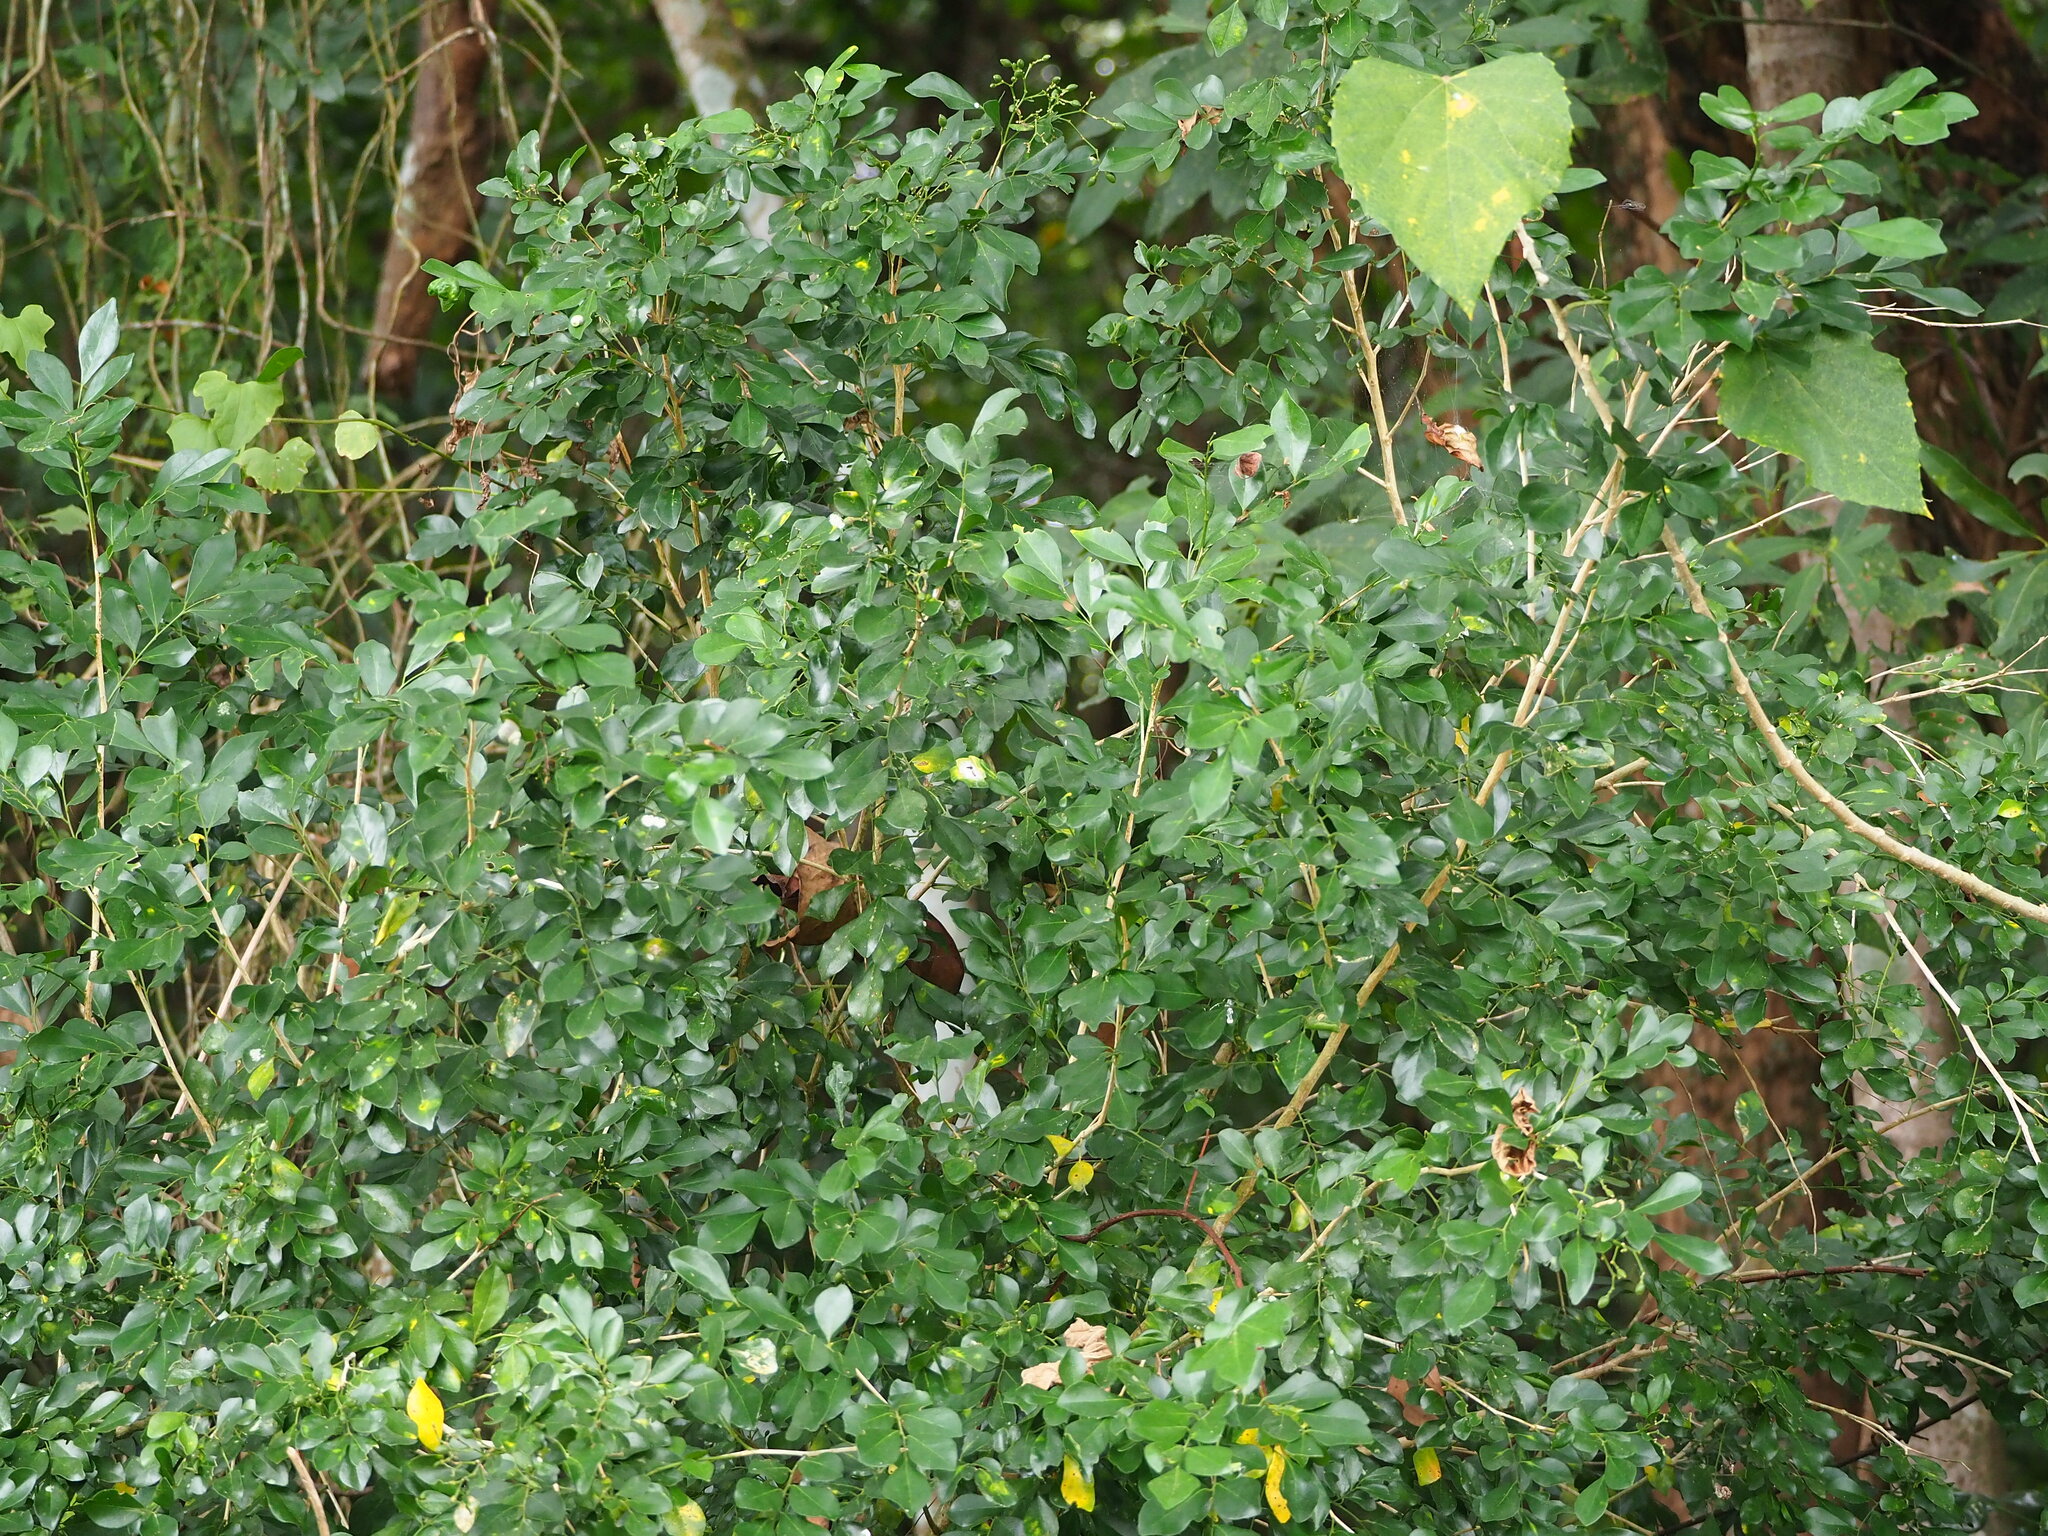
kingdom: Plantae
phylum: Tracheophyta
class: Magnoliopsida
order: Sapindales
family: Rutaceae
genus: Murraya
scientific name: Murraya paniculata
